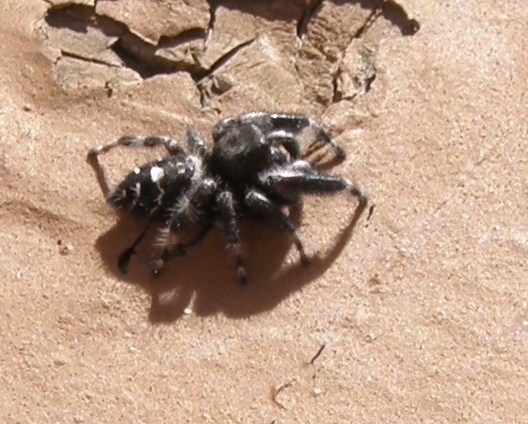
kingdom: Animalia
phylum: Arthropoda
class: Arachnida
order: Araneae
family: Salticidae
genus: Phidippus
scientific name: Phidippus audax
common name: Bold jumper
